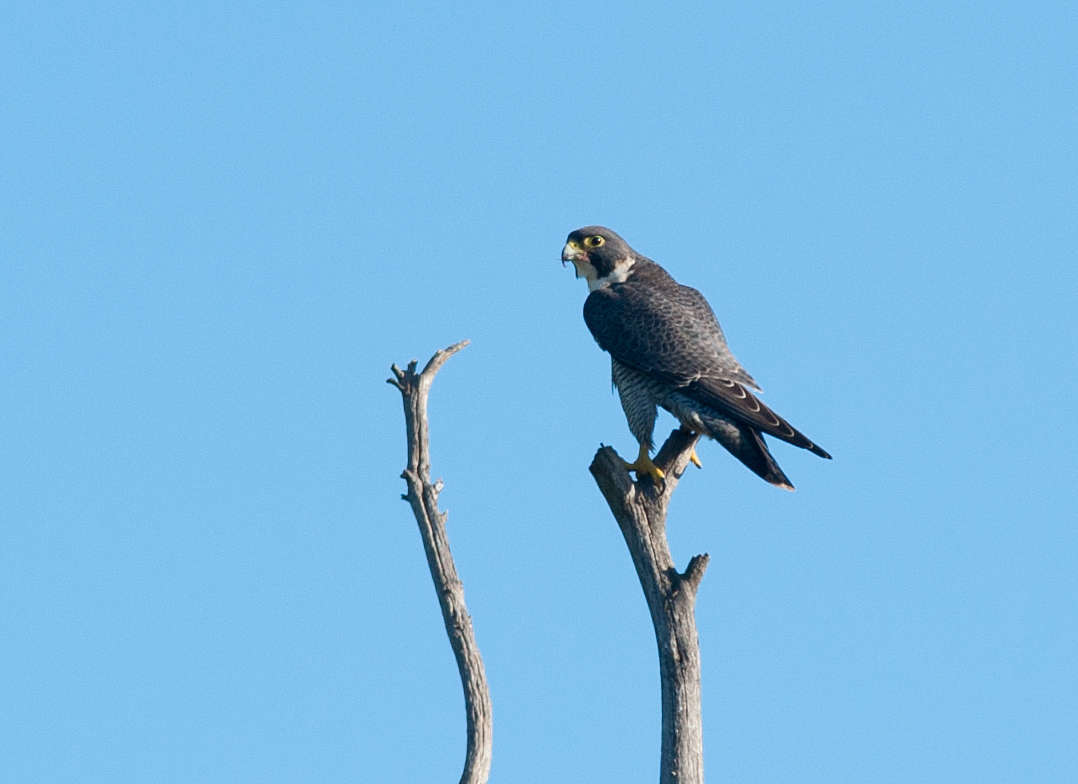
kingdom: Animalia
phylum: Chordata
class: Aves
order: Falconiformes
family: Falconidae
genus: Falco
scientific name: Falco peregrinus
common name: Peregrine falcon
